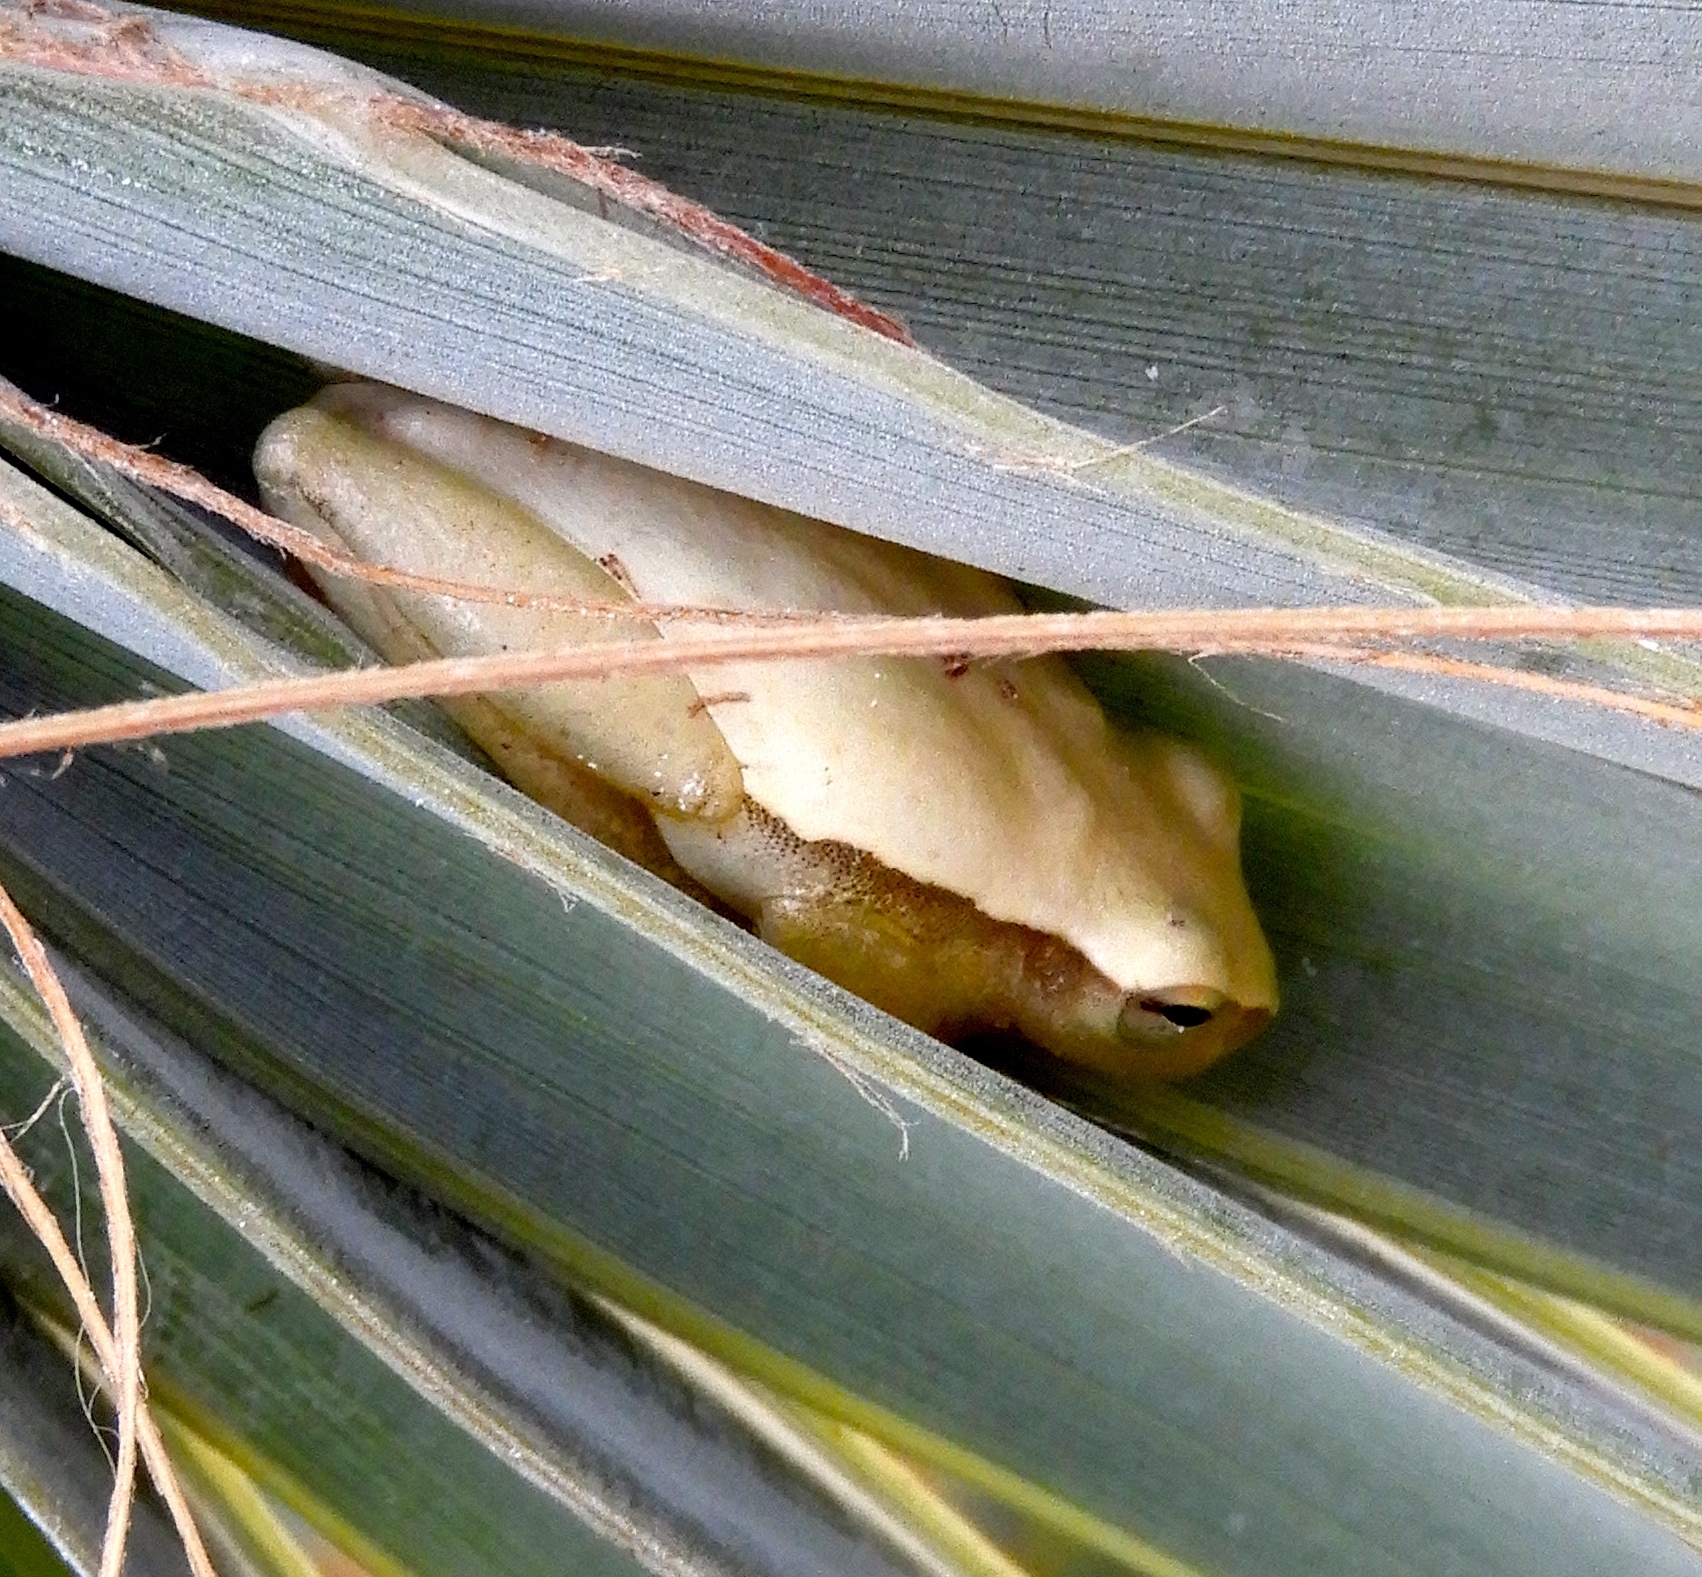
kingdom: Animalia
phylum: Chordata
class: Amphibia
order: Anura
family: Hylidae
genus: Tlalocohyla
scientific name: Tlalocohyla smithii
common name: Dwarf mexican treefrog
